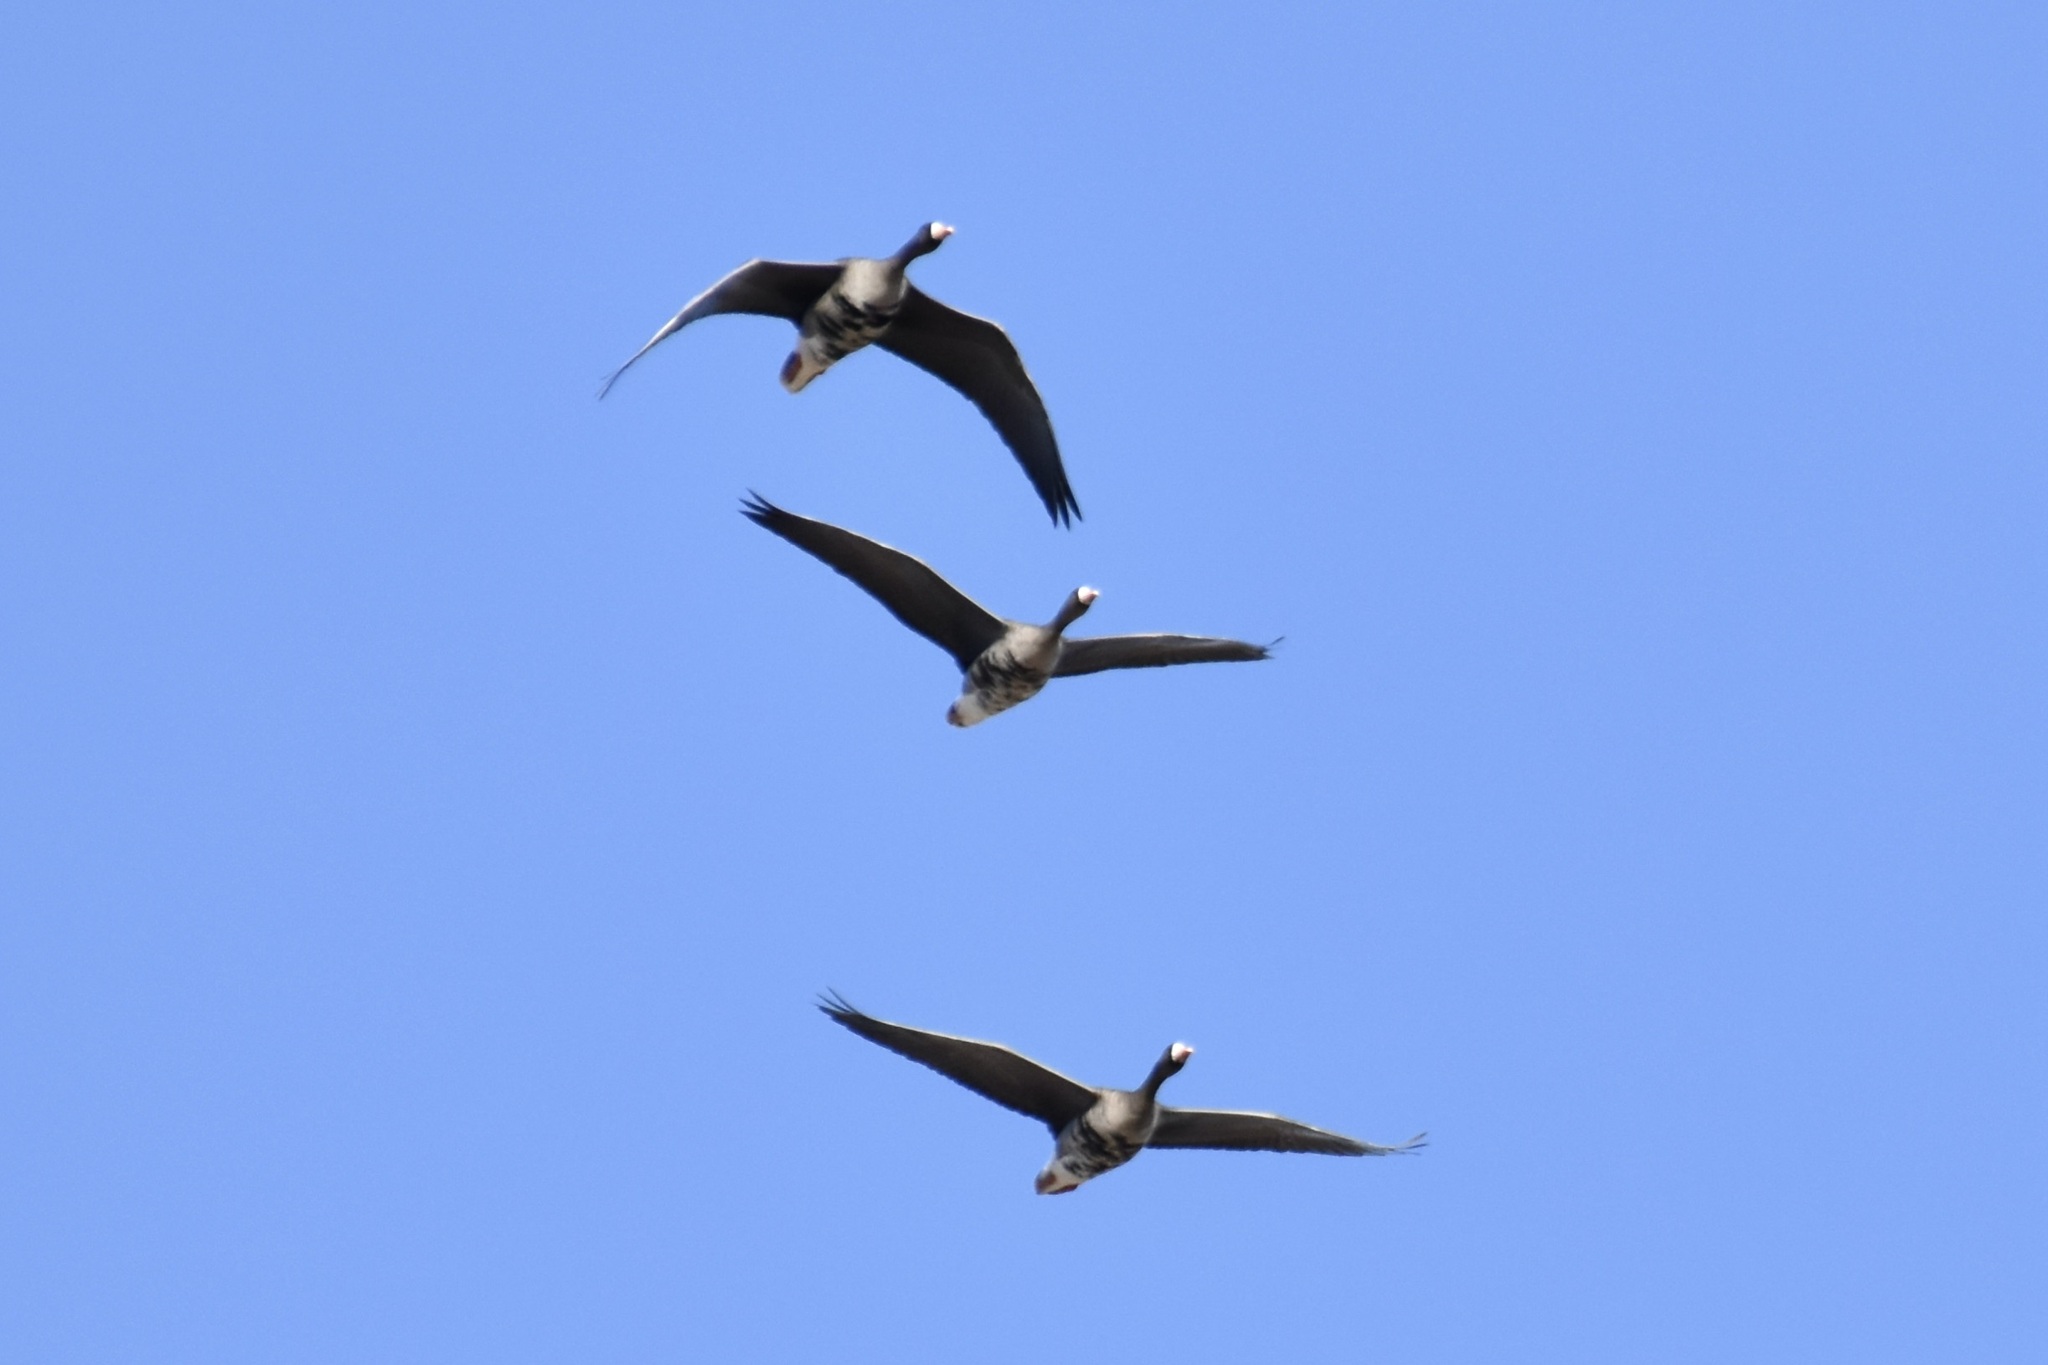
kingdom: Animalia
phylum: Chordata
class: Aves
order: Anseriformes
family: Anatidae
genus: Anser
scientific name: Anser albifrons
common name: Greater white-fronted goose
